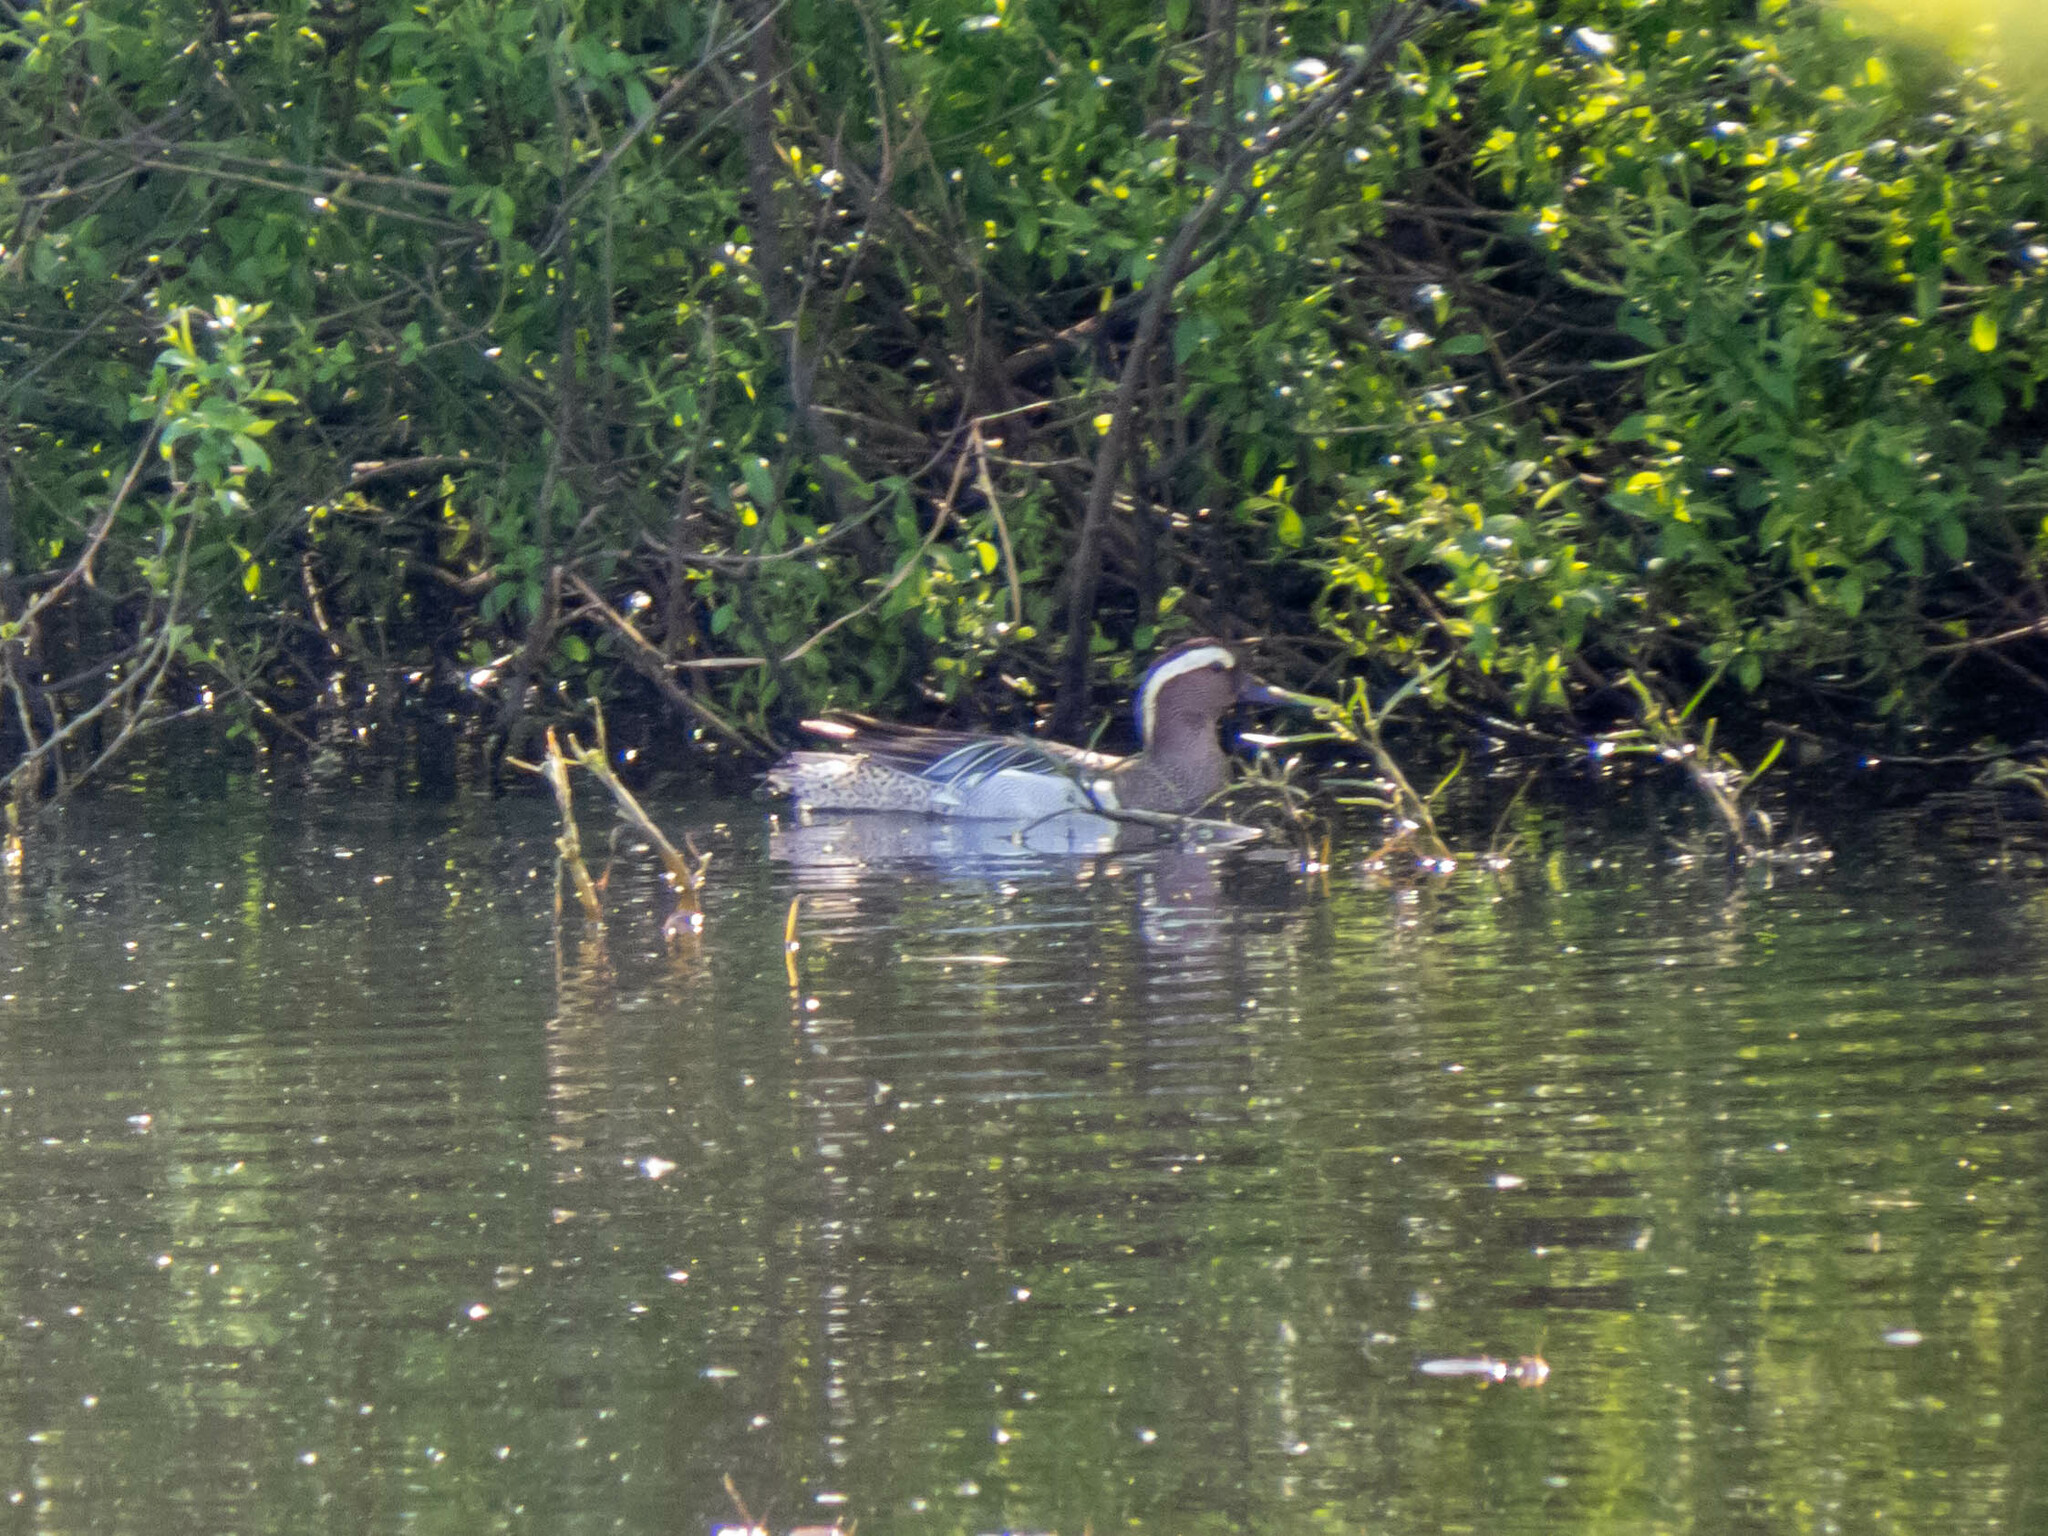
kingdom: Animalia
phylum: Chordata
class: Aves
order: Anseriformes
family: Anatidae
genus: Spatula
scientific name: Spatula querquedula
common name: Garganey
